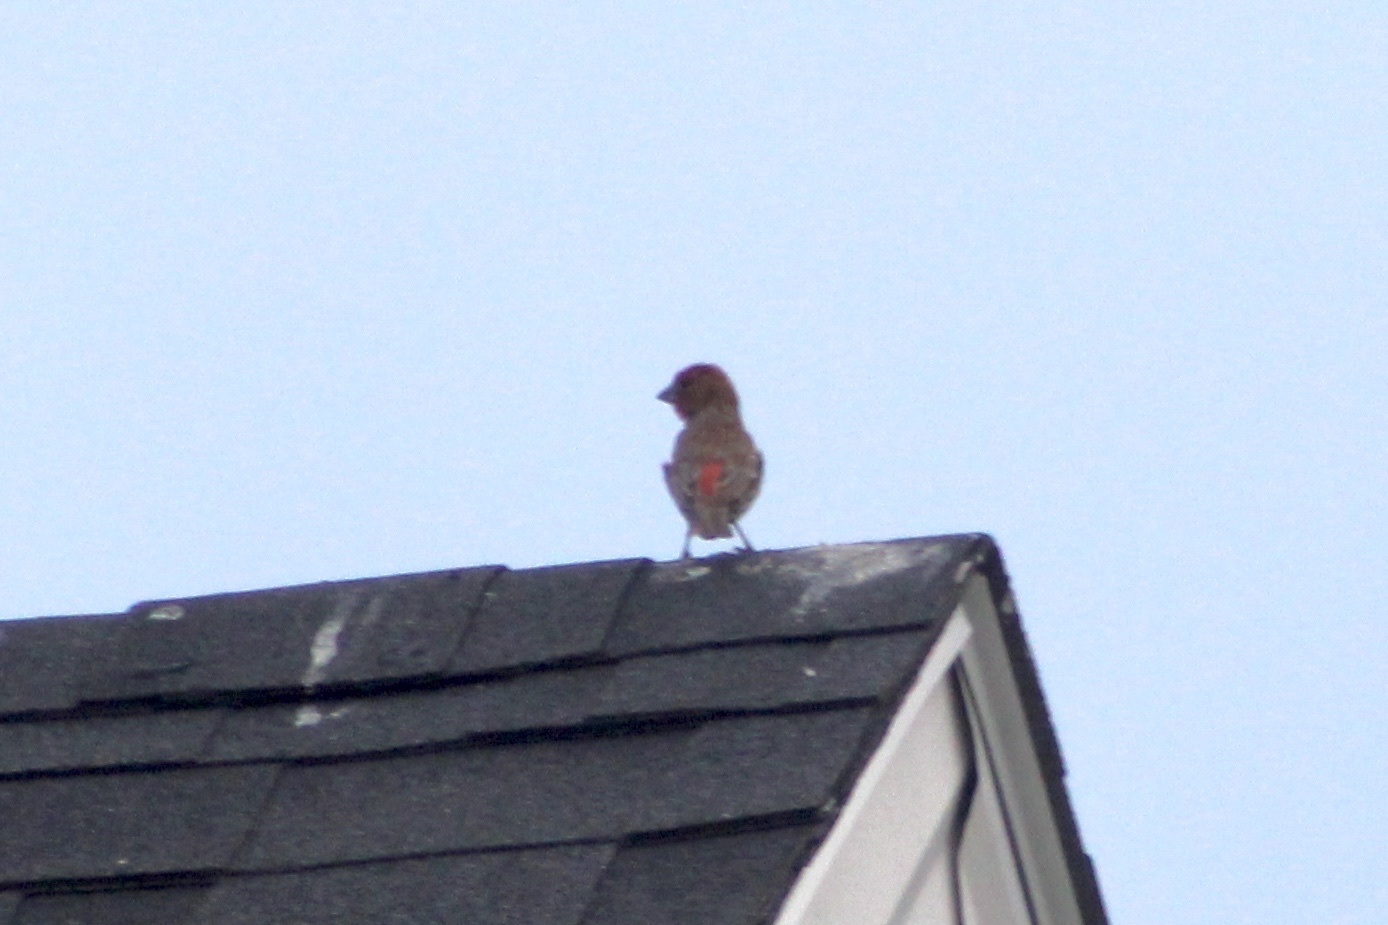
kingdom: Animalia
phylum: Chordata
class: Aves
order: Passeriformes
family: Fringillidae
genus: Haemorhous
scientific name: Haemorhous mexicanus
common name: House finch
